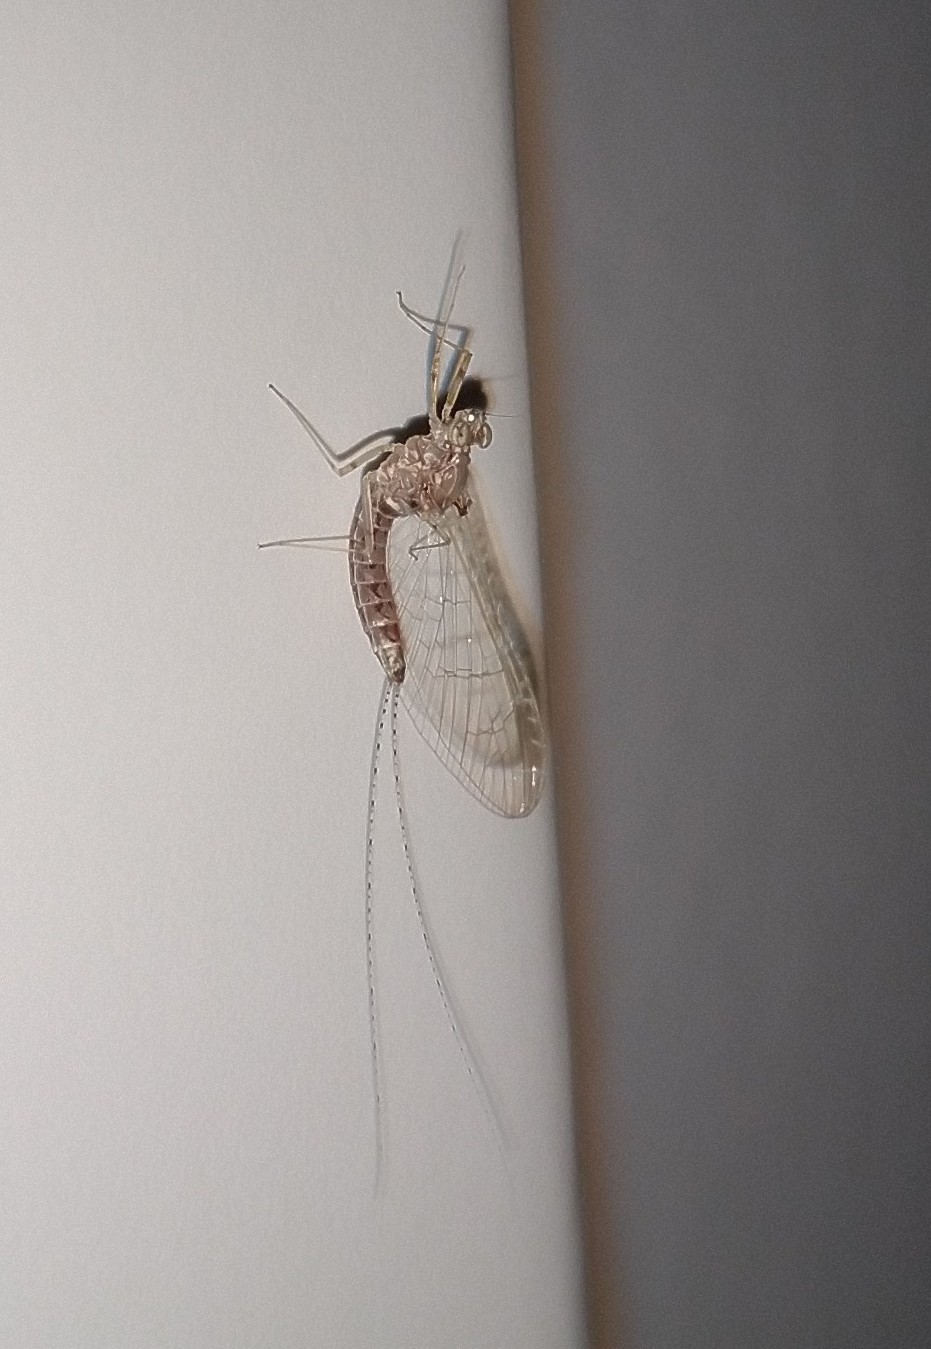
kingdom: Animalia
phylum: Arthropoda
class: Insecta
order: Ephemeroptera
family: Baetidae
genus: Cloeon
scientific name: Cloeon dipterum
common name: Pond olive
